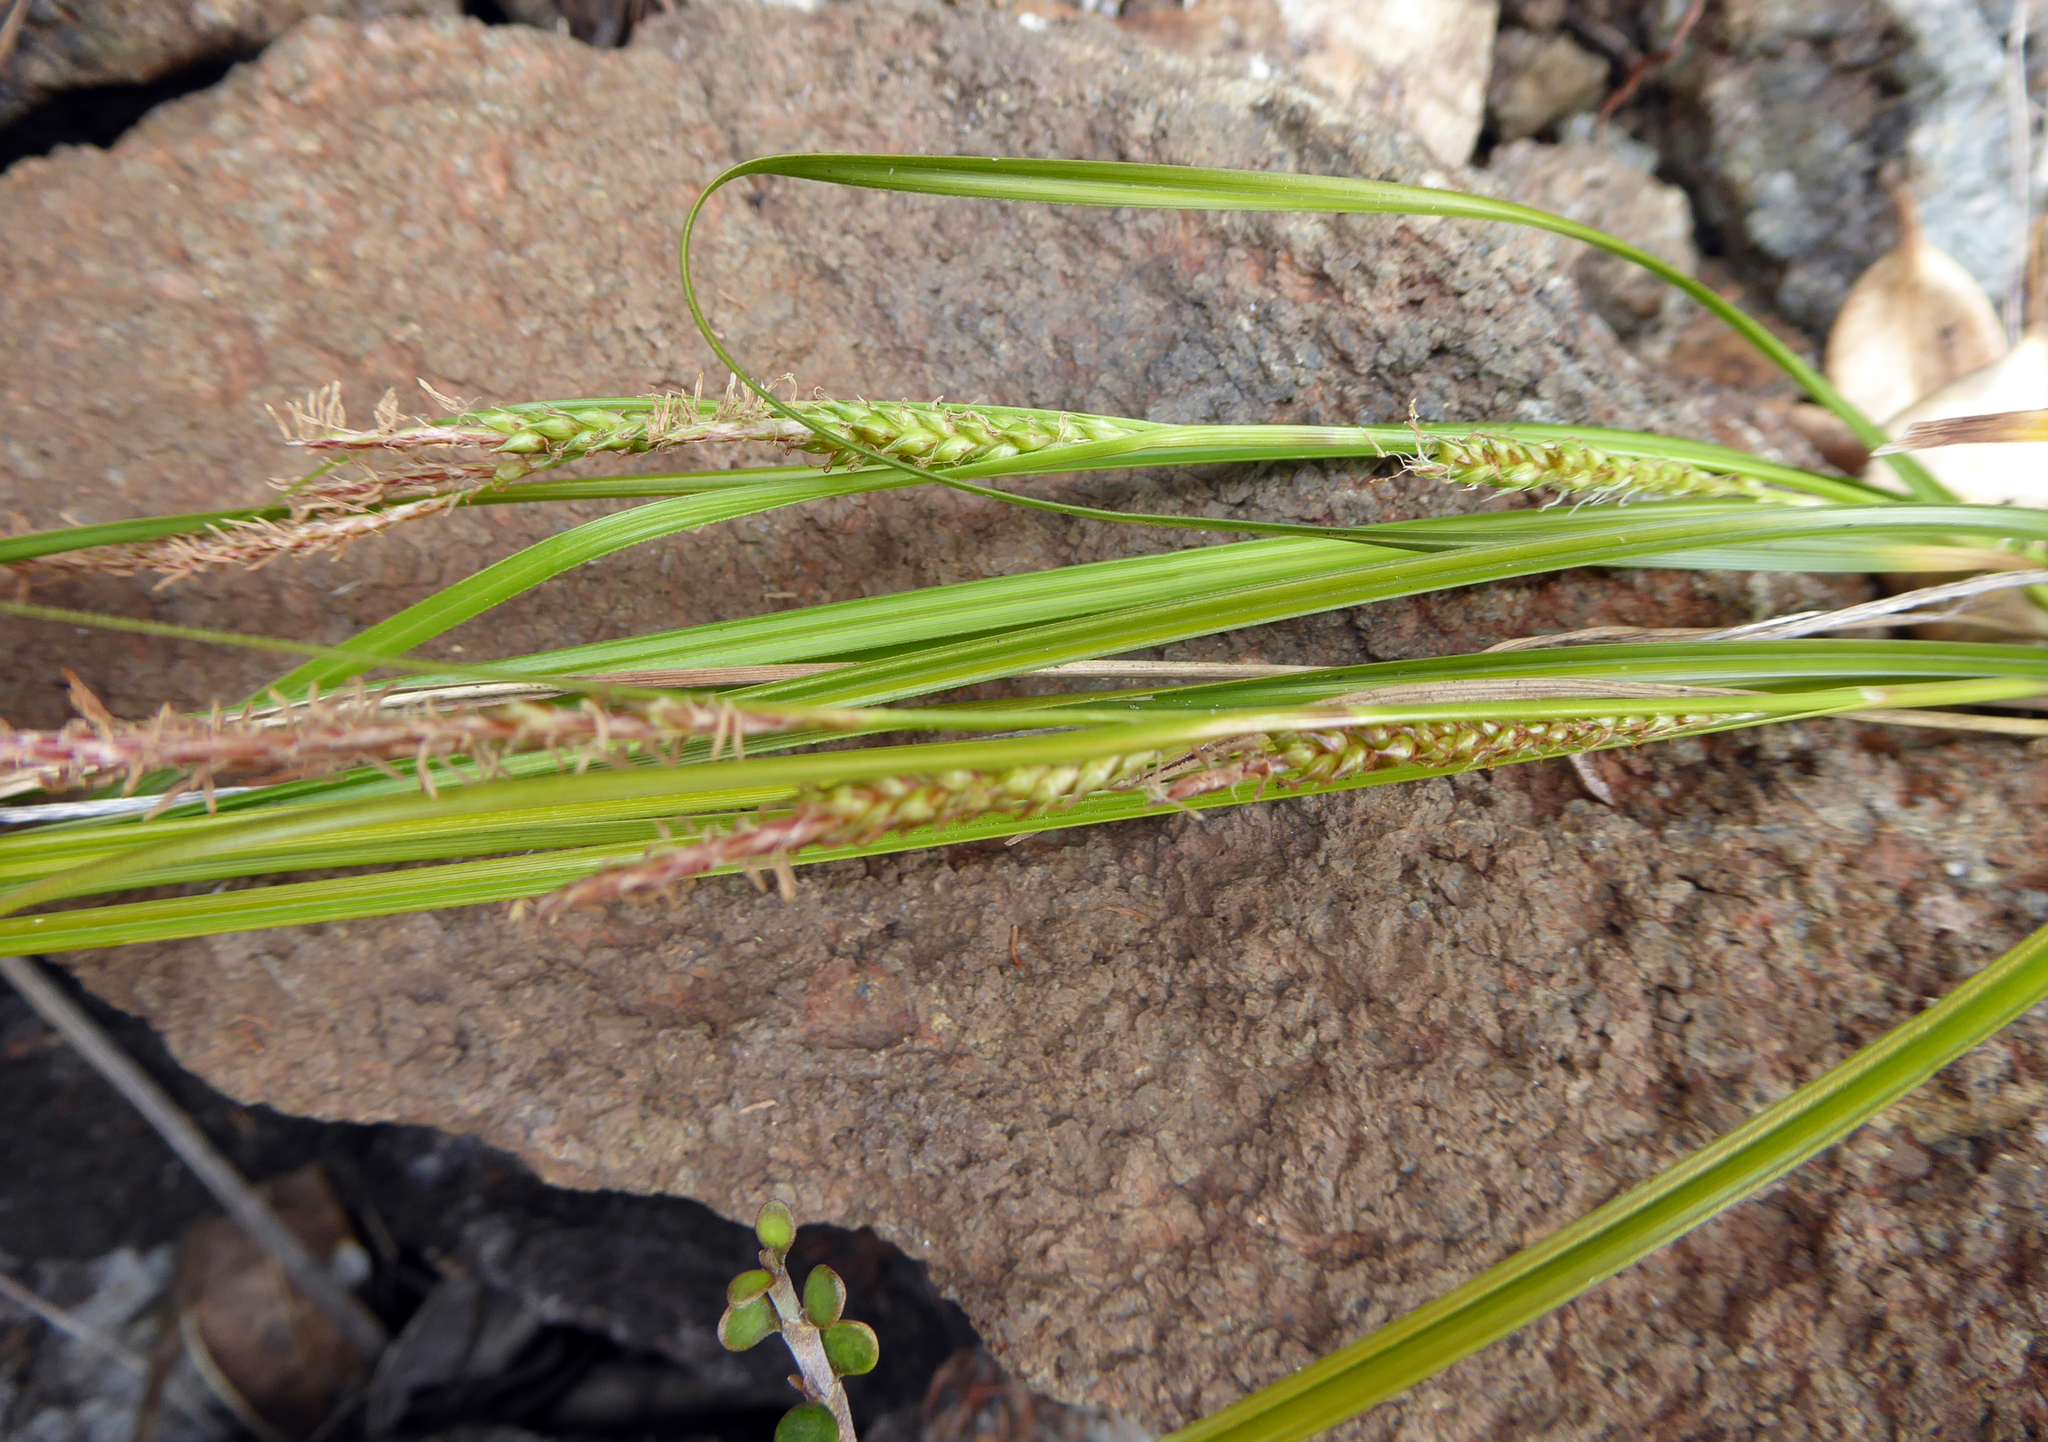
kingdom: Plantae
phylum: Tracheophyta
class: Liliopsida
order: Poales
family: Cyperaceae
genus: Carex
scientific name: Carex ophiolithica
